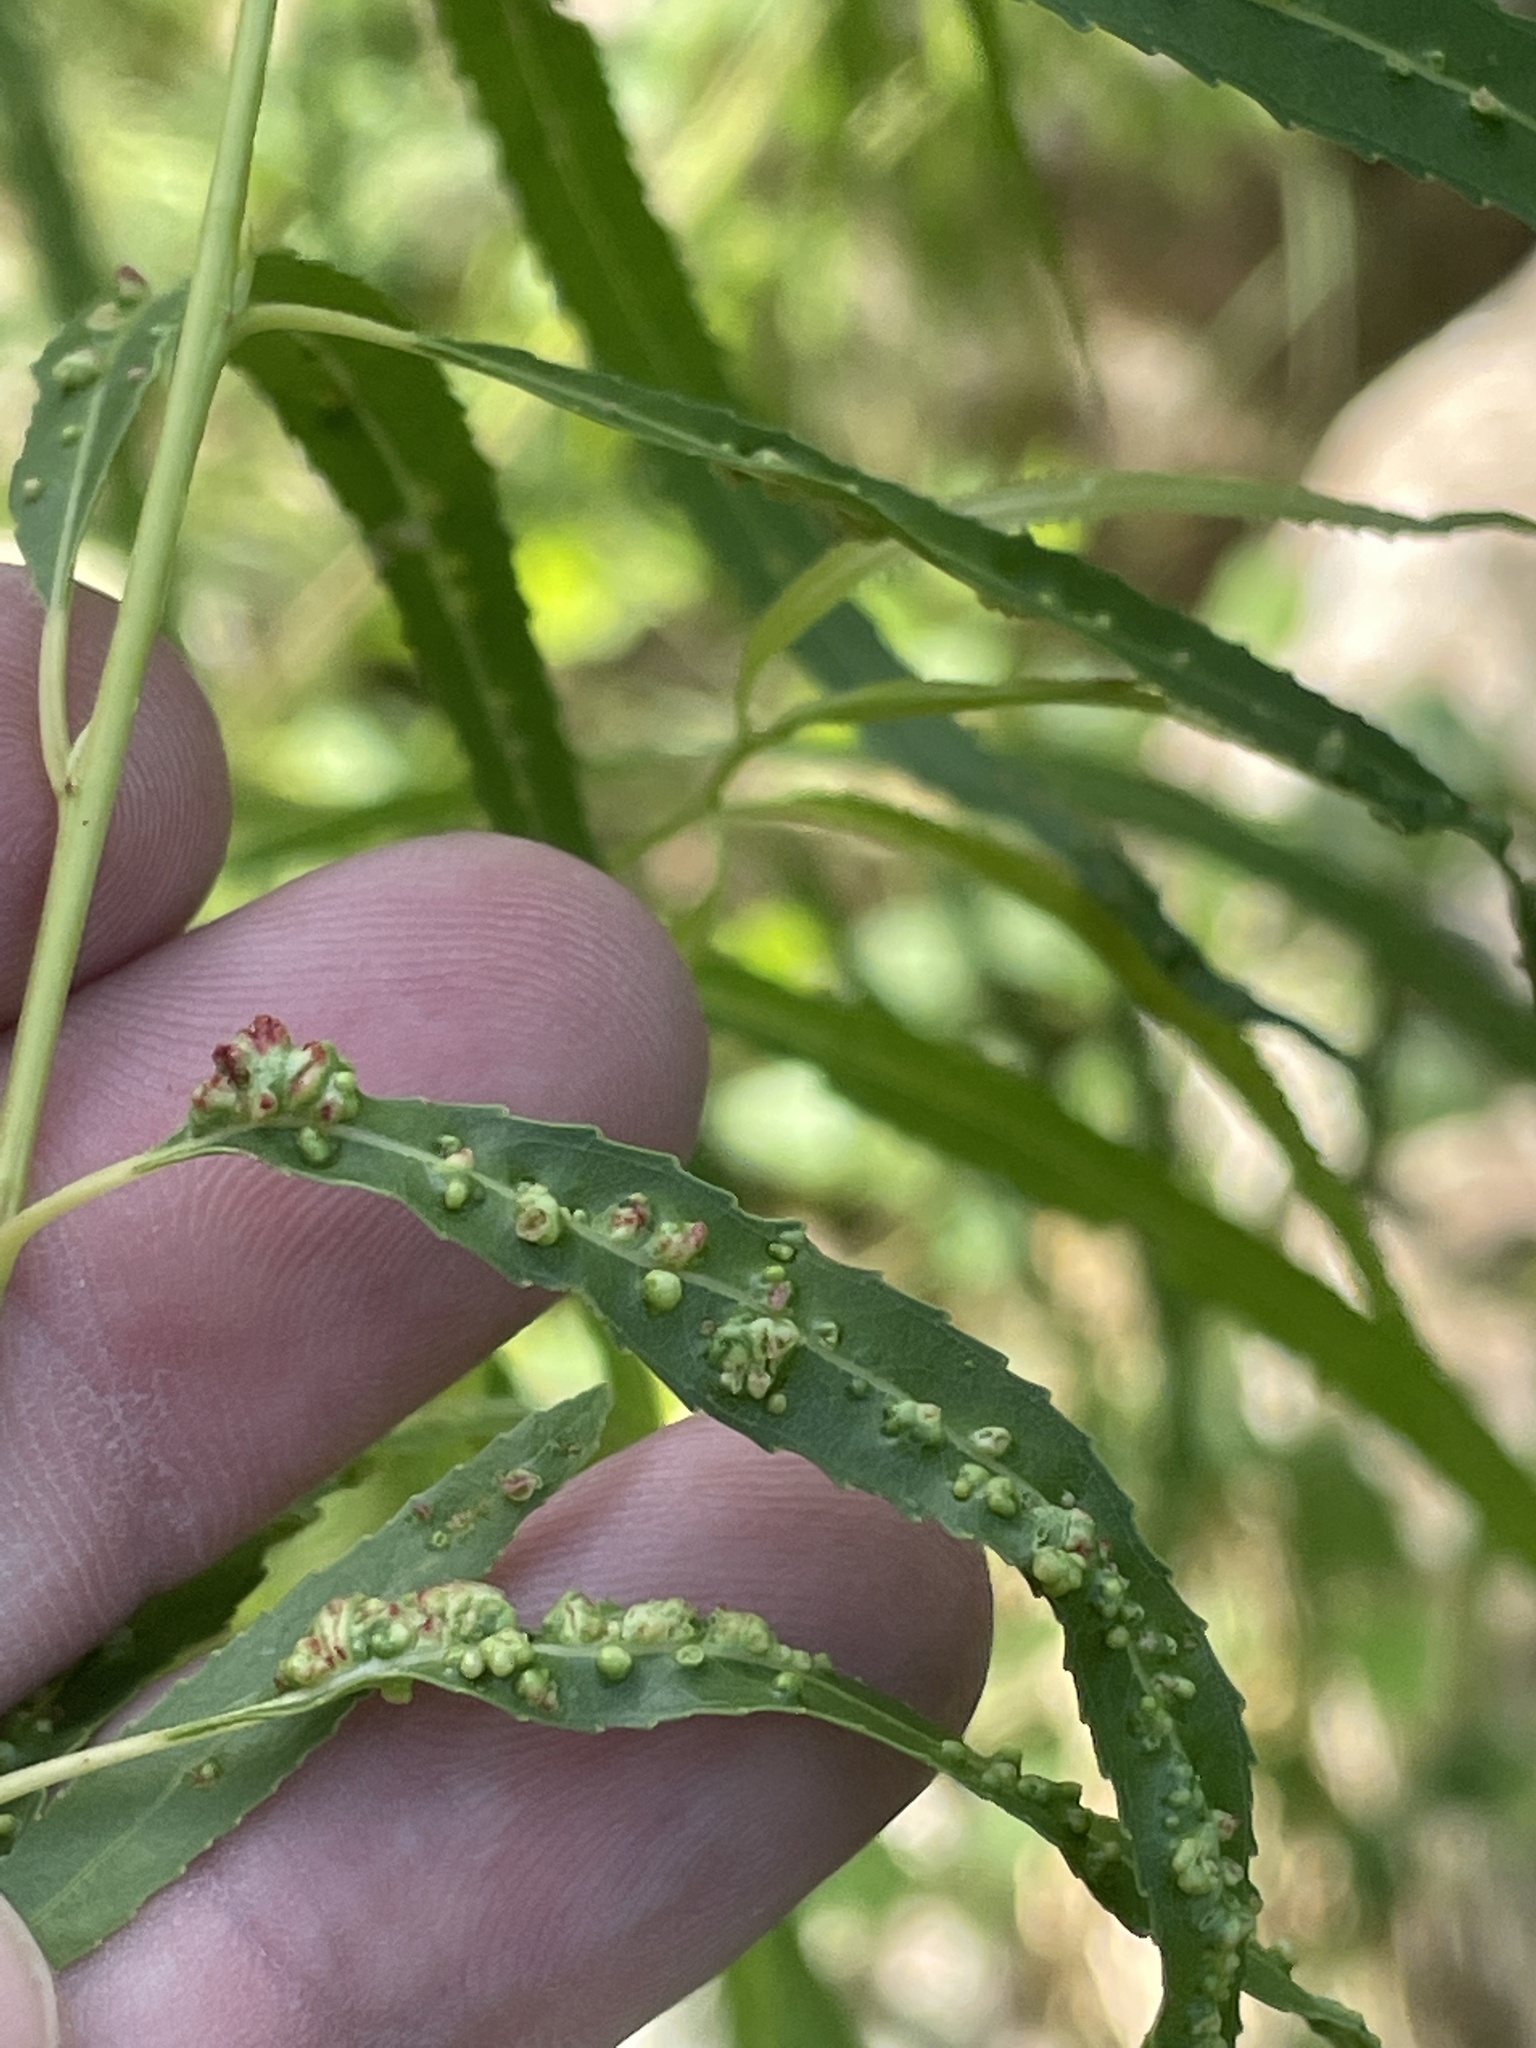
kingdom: Animalia
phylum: Arthropoda
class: Arachnida
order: Trombidiformes
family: Eriophyidae
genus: Aculus
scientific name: Aculus tetanothrix
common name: Willow bead gall mite
